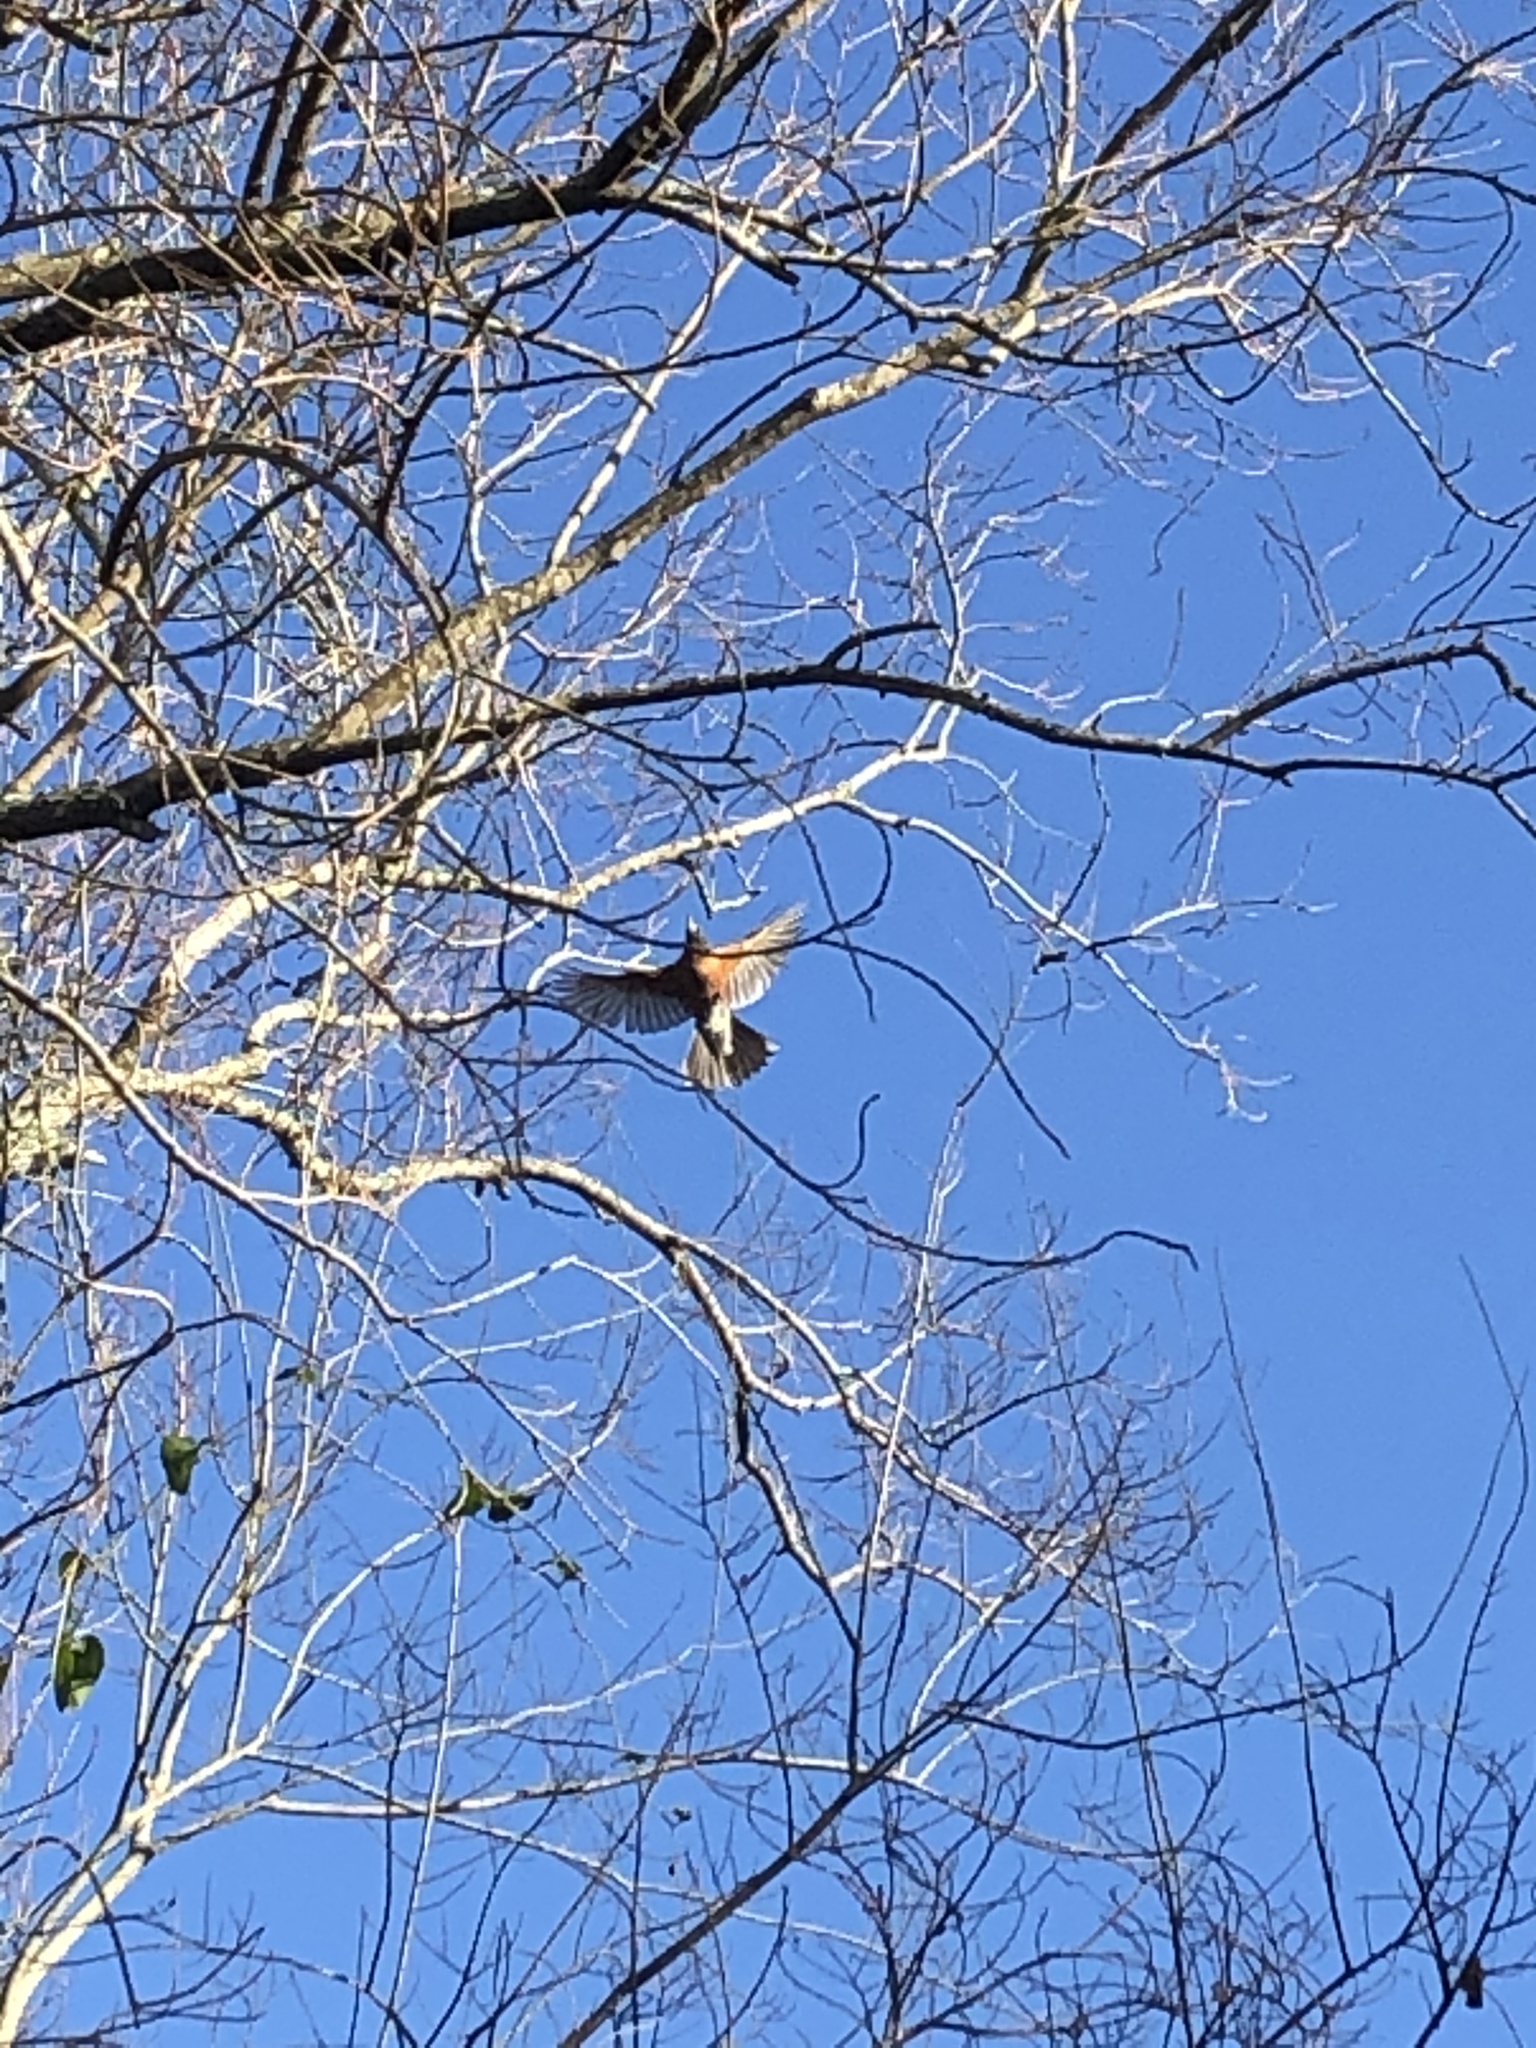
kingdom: Animalia
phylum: Chordata
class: Aves
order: Passeriformes
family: Turdidae
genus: Turdus
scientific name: Turdus migratorius
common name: American robin
